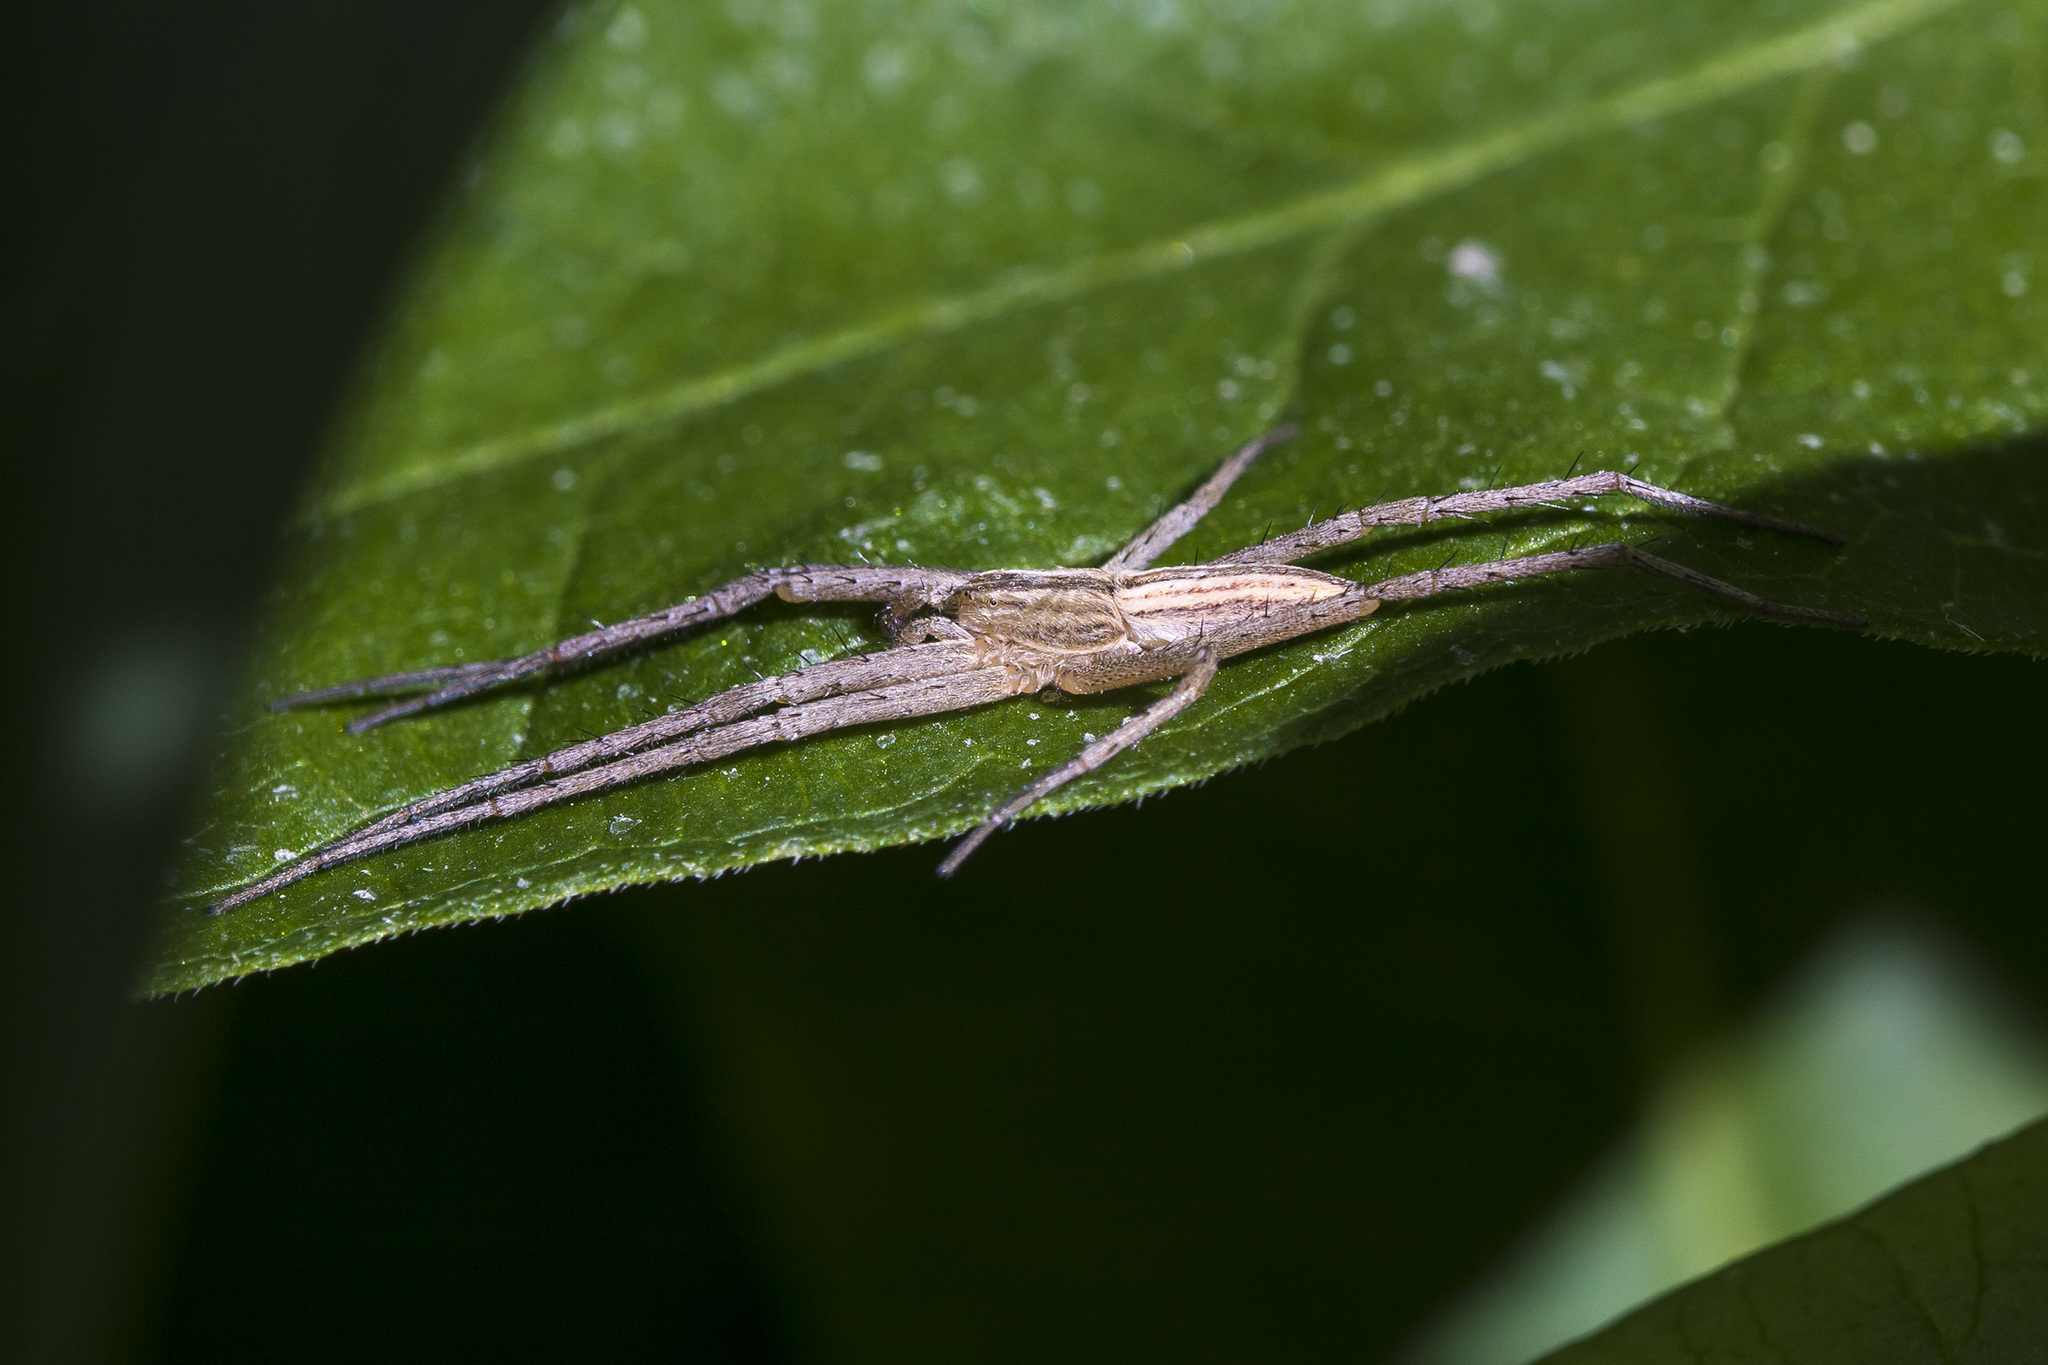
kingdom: Animalia
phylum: Arthropoda
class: Arachnida
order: Araneae
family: Philodromidae
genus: Tibellus
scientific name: Tibellus oblongus
